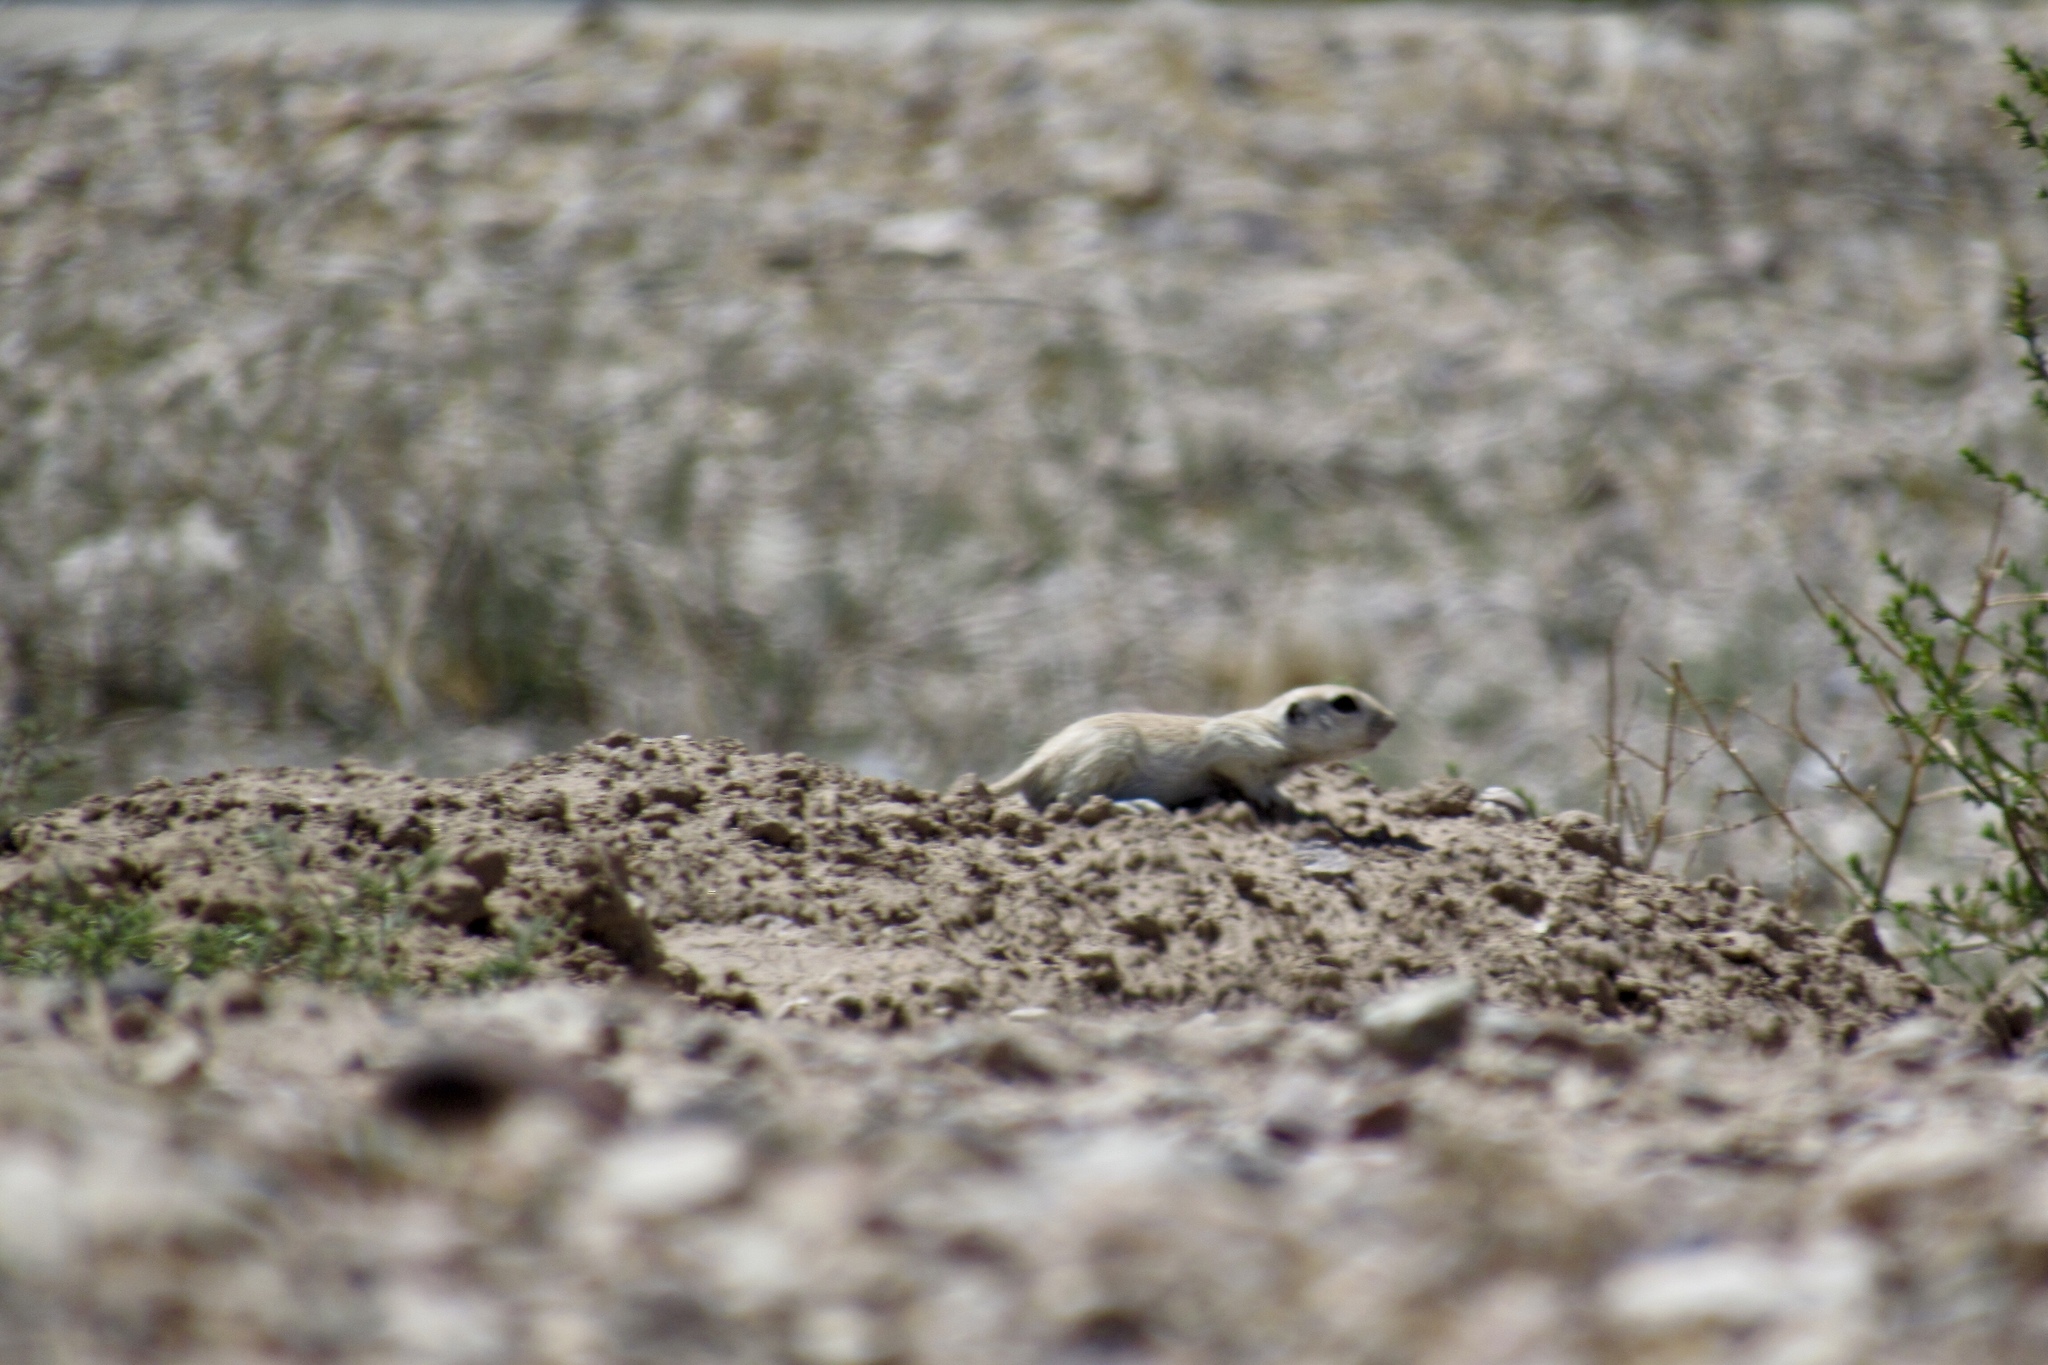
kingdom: Animalia
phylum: Chordata
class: Mammalia
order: Rodentia
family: Sciuridae
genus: Xerospermophilus
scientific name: Xerospermophilus tereticaudus
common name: Round-tailed ground squirrel
